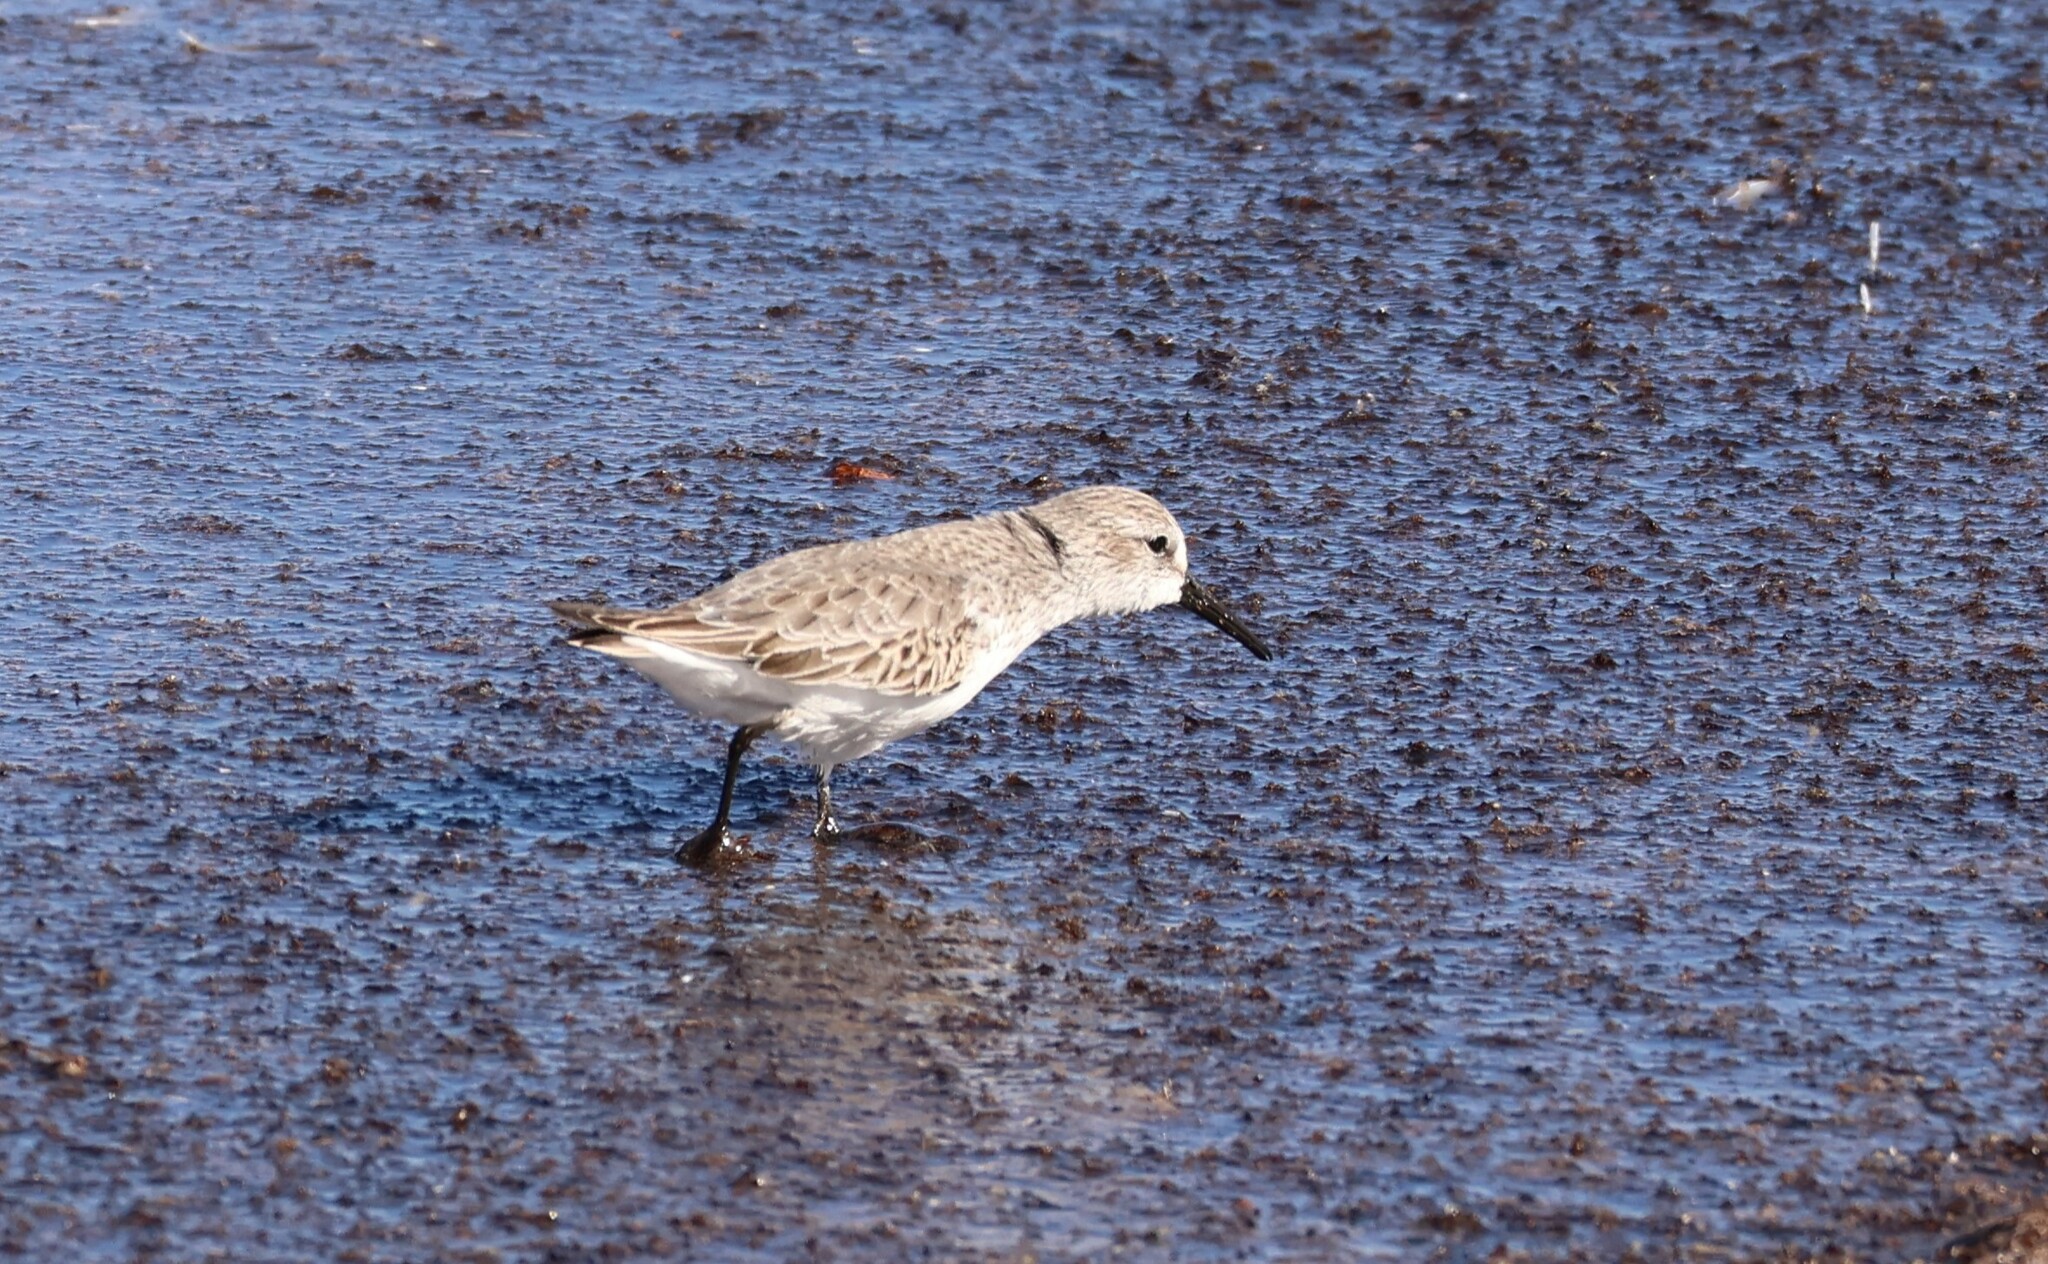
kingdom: Animalia
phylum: Chordata
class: Aves
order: Charadriiformes
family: Scolopacidae
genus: Calidris
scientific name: Calidris mauri
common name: Western sandpiper
